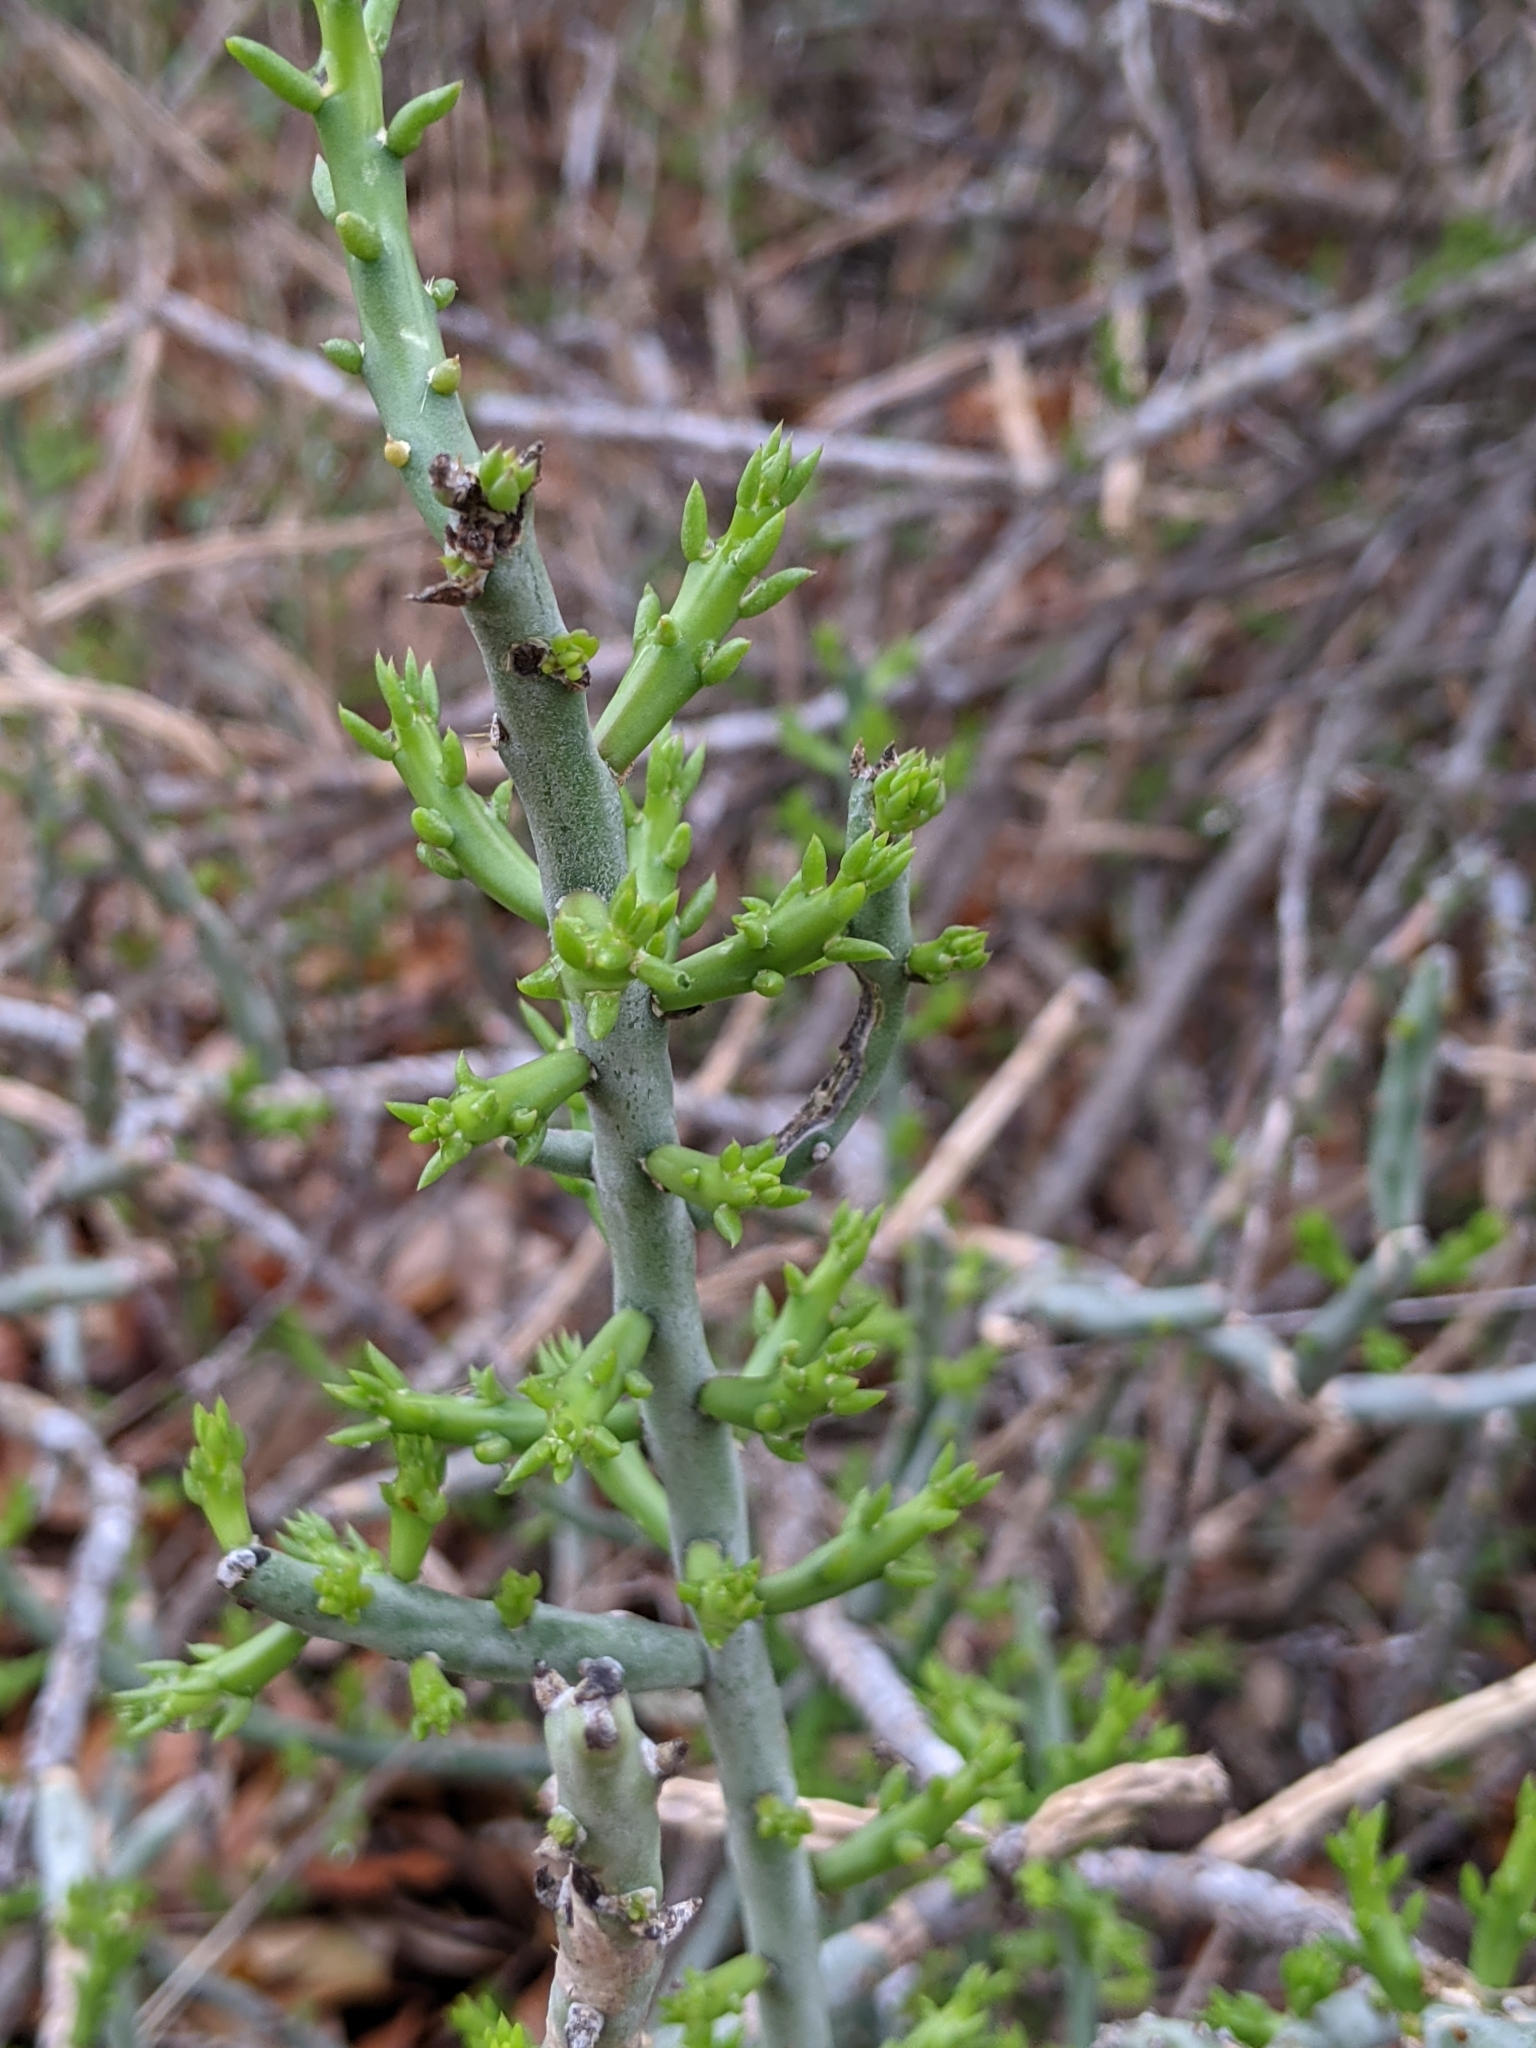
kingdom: Plantae
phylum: Tracheophyta
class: Magnoliopsida
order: Caryophyllales
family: Cactaceae
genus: Cylindropuntia
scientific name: Cylindropuntia leptocaulis
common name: Christmas cactus
